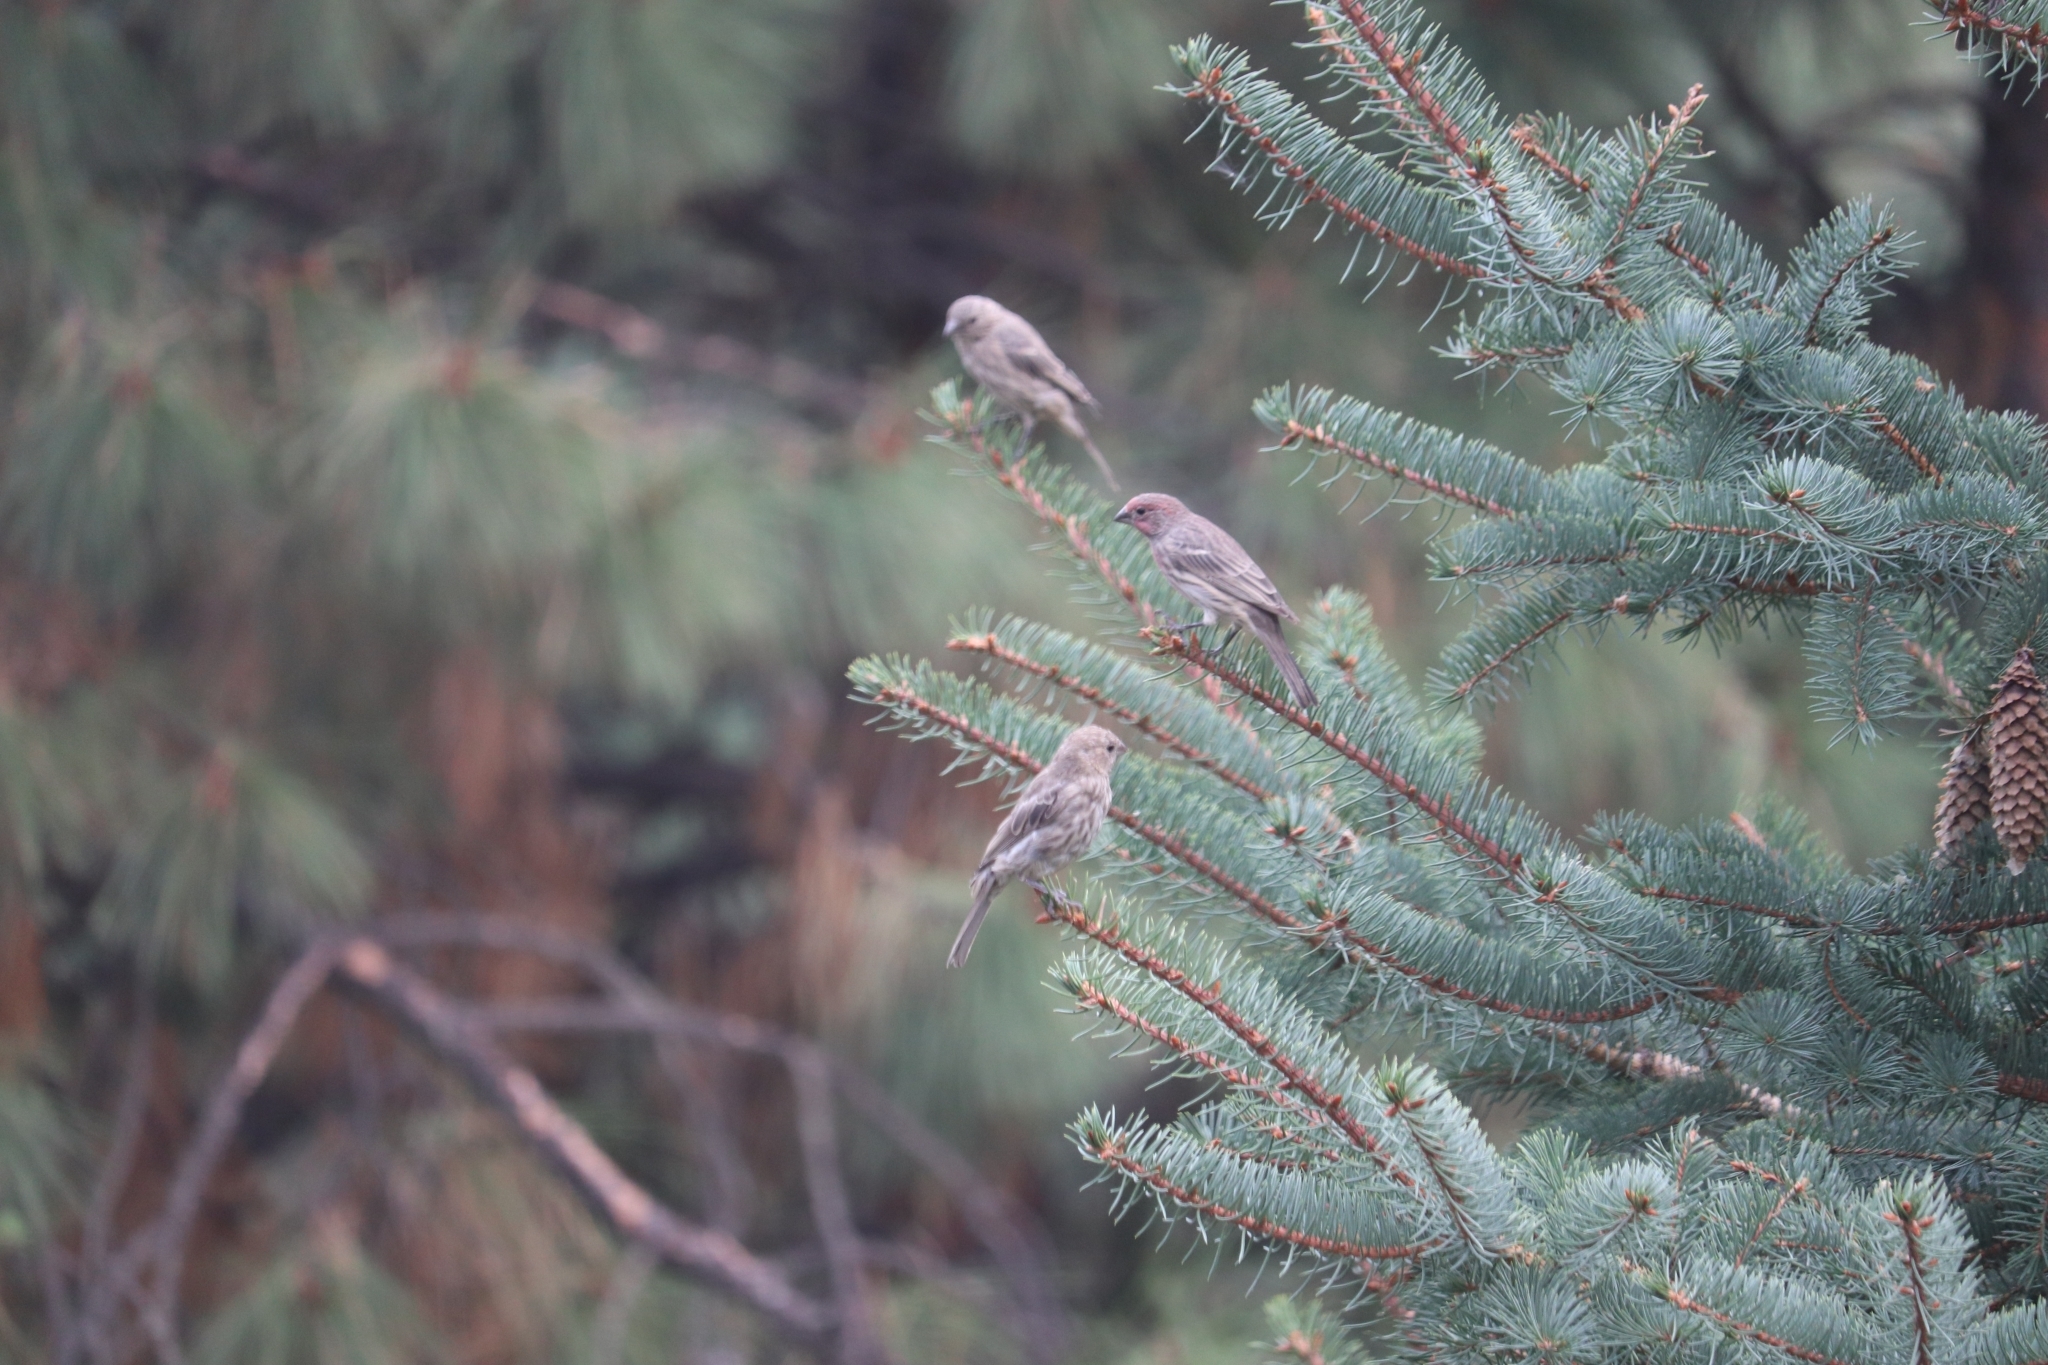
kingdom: Animalia
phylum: Chordata
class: Aves
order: Passeriformes
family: Fringillidae
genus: Haemorhous
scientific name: Haemorhous mexicanus
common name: House finch
